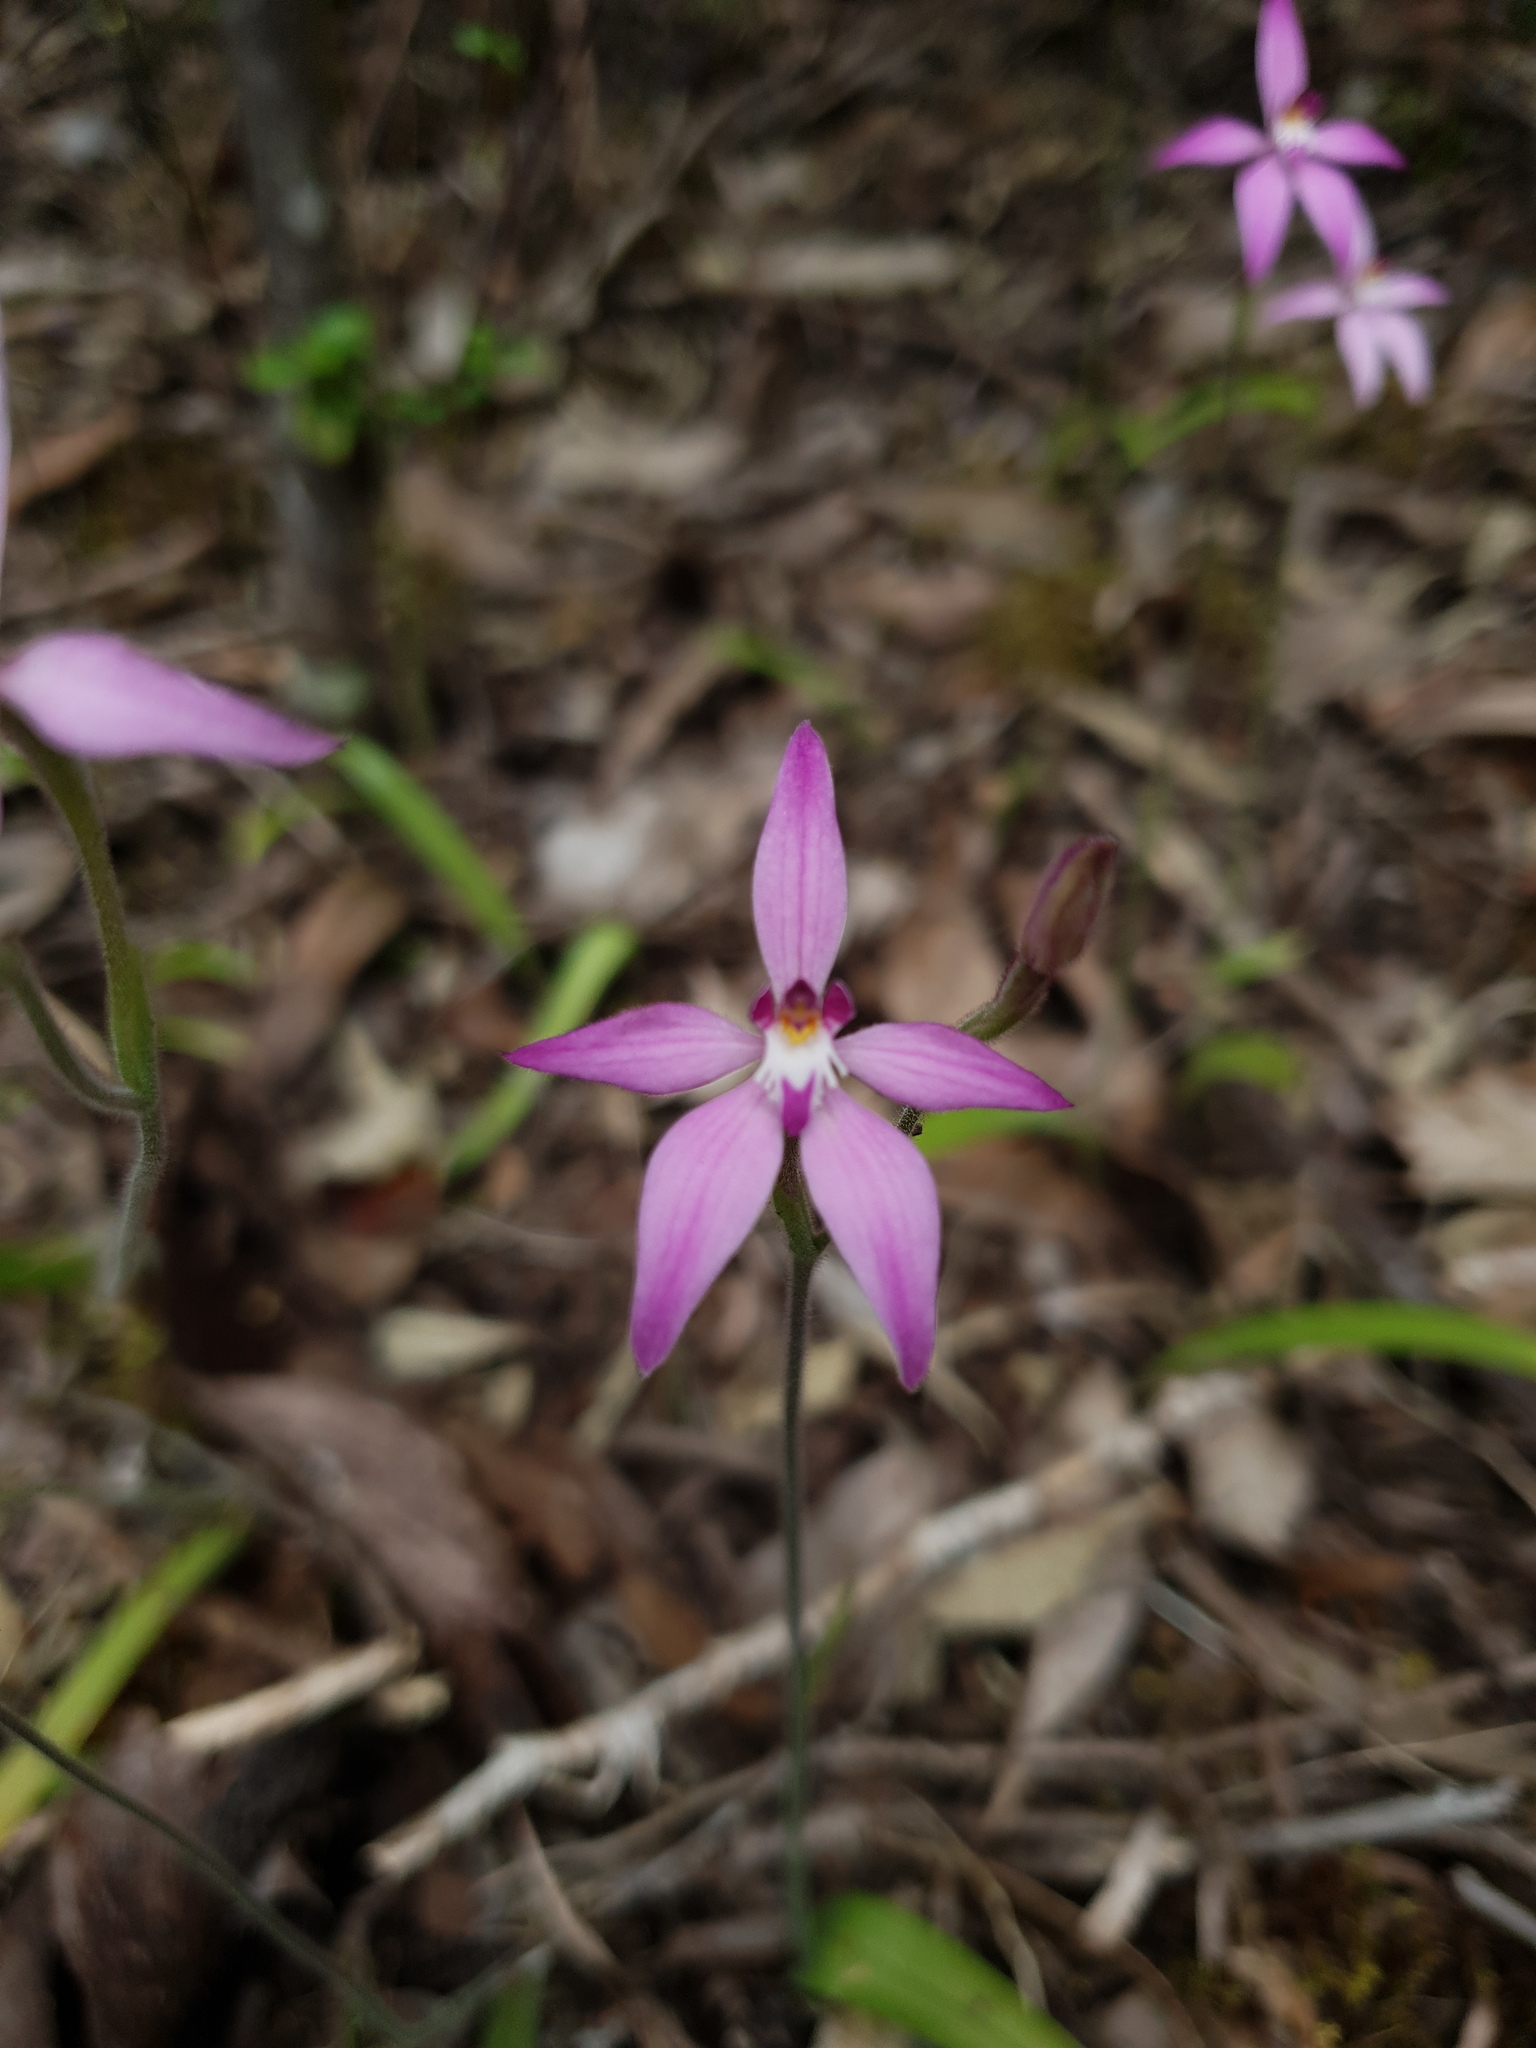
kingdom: Plantae
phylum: Tracheophyta
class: Liliopsida
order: Asparagales
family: Orchidaceae
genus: Caladenia
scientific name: Caladenia latifolia
